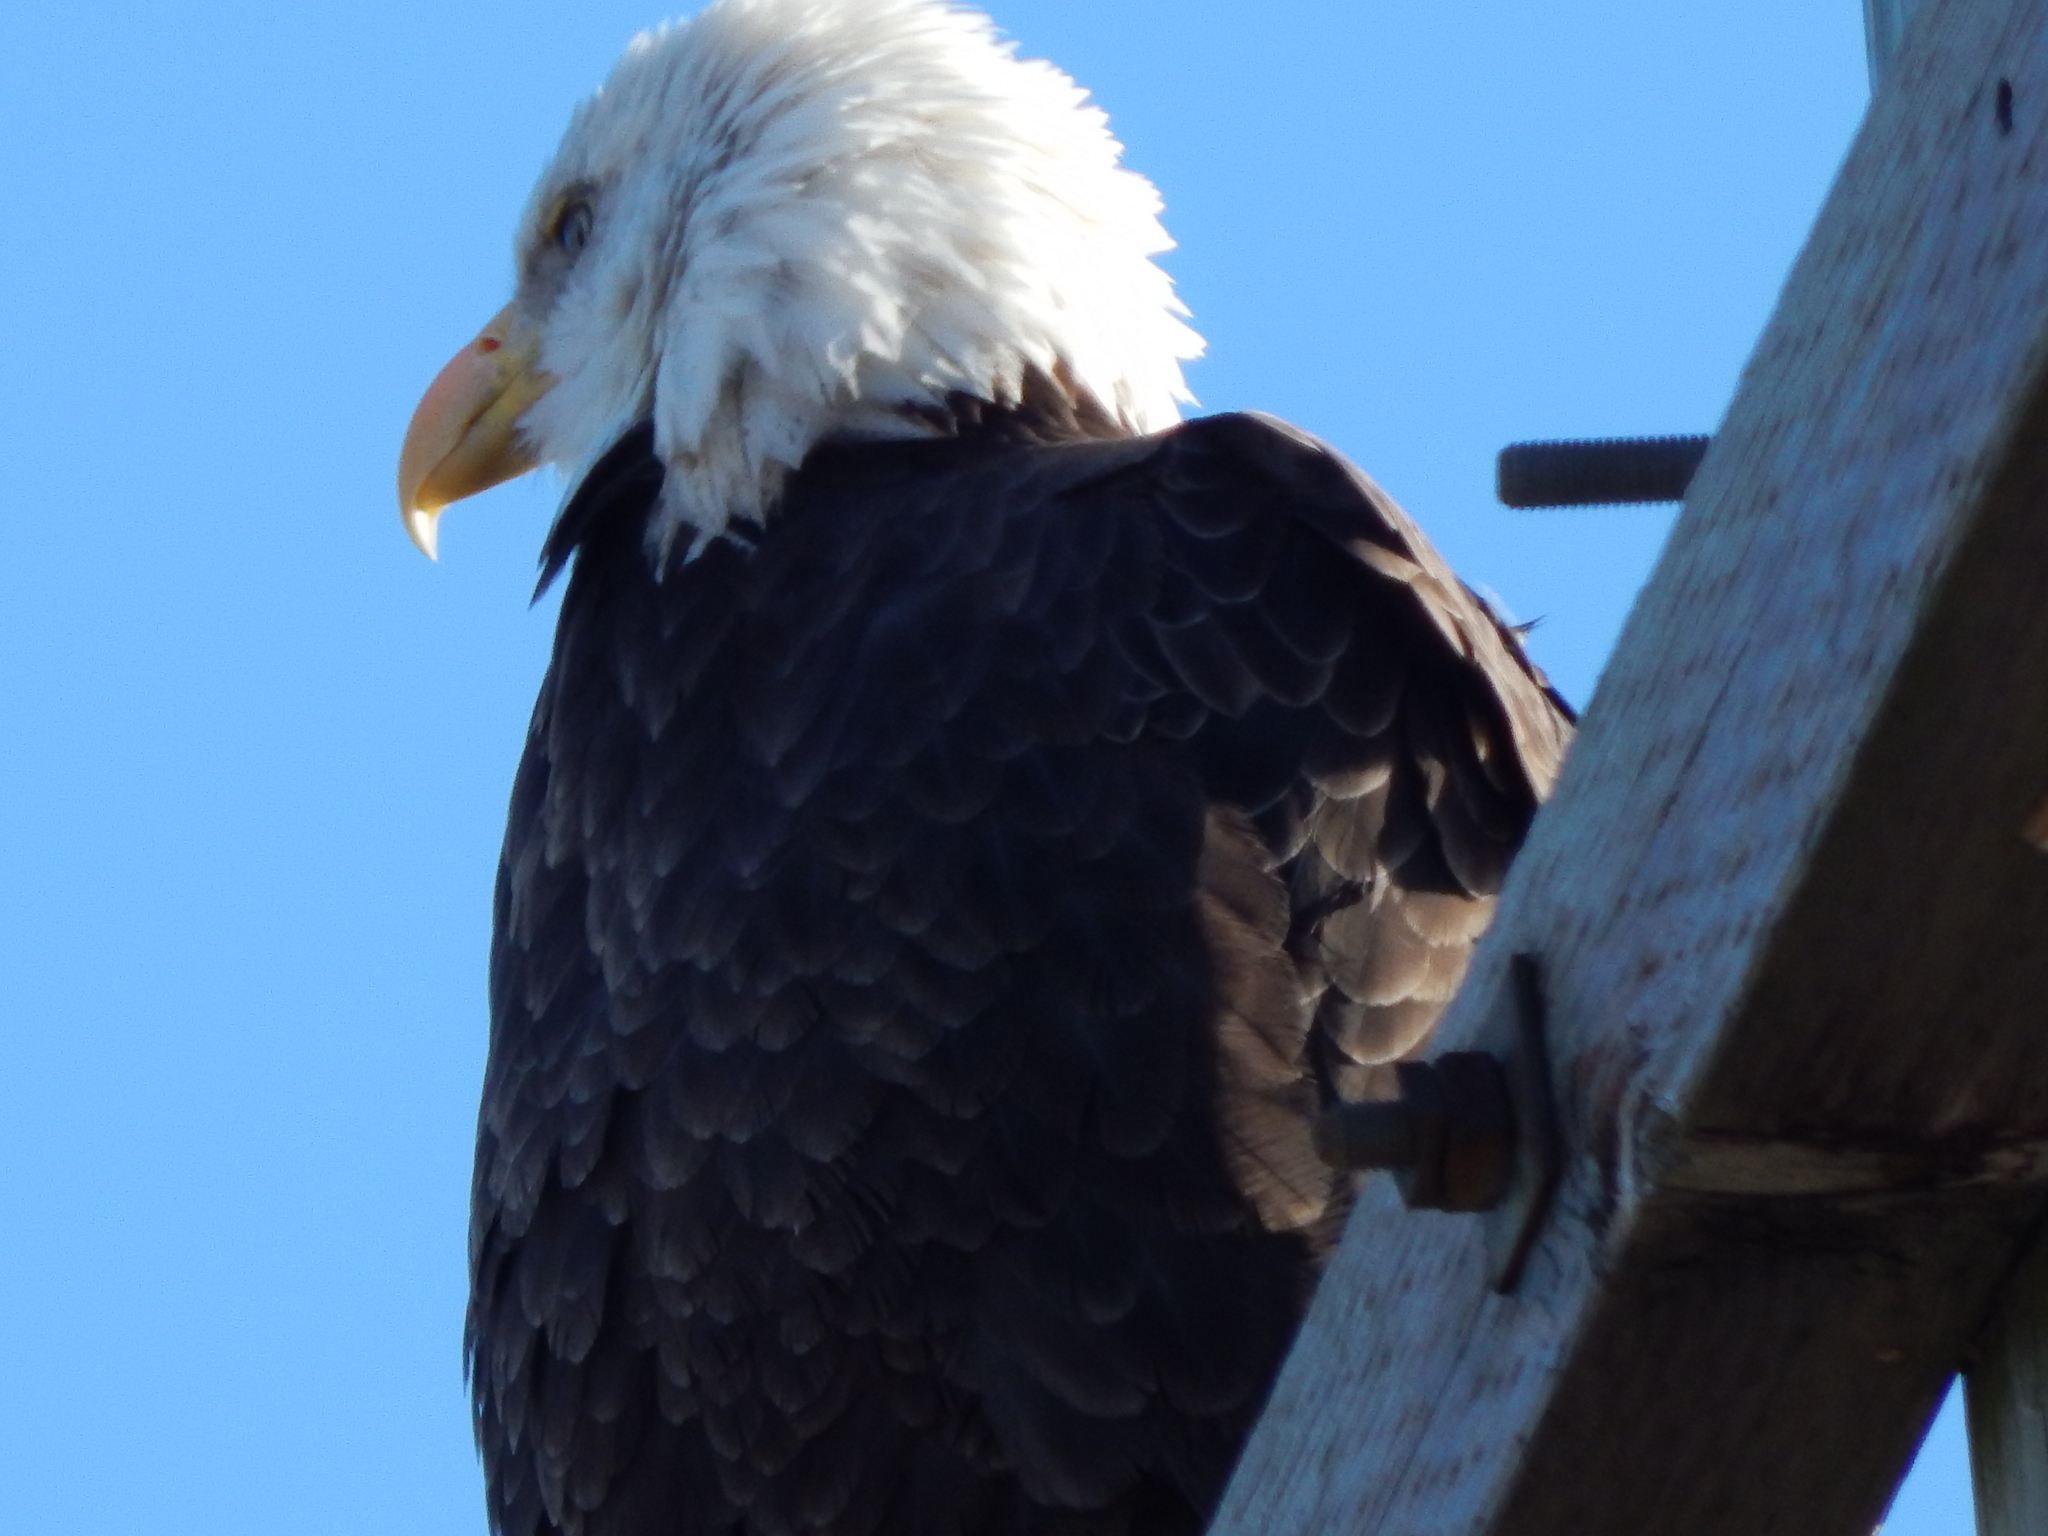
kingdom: Animalia
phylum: Chordata
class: Aves
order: Accipitriformes
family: Accipitridae
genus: Haliaeetus
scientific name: Haliaeetus leucocephalus
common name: Bald eagle
